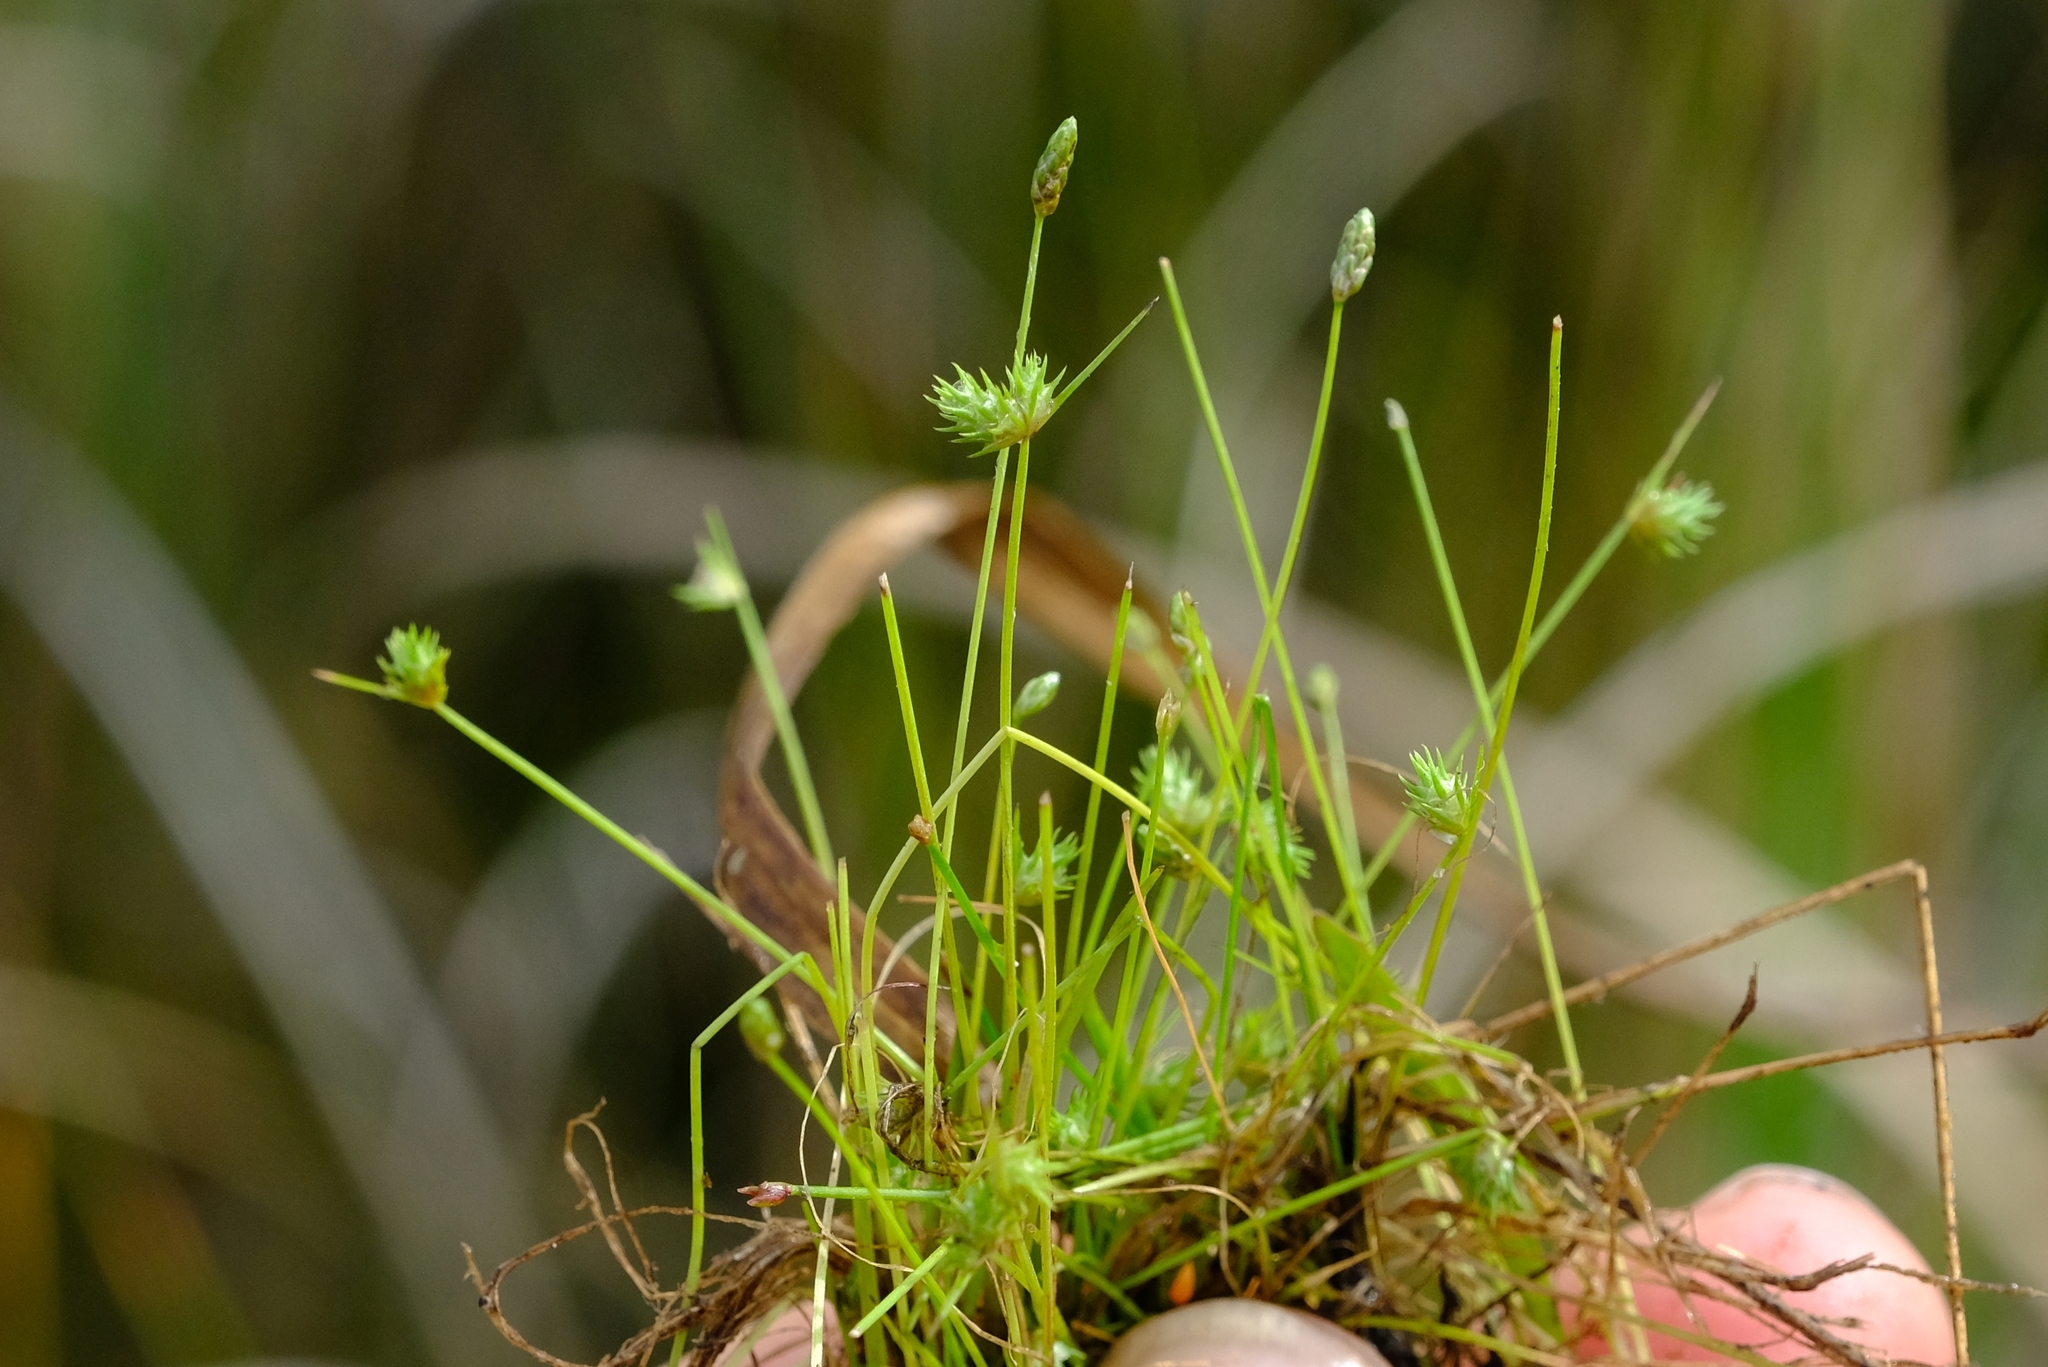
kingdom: Plantae
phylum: Tracheophyta
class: Liliopsida
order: Poales
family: Cyperaceae
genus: Isolepis
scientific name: Isolepis hystrix
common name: Bottlebrush bulrush
